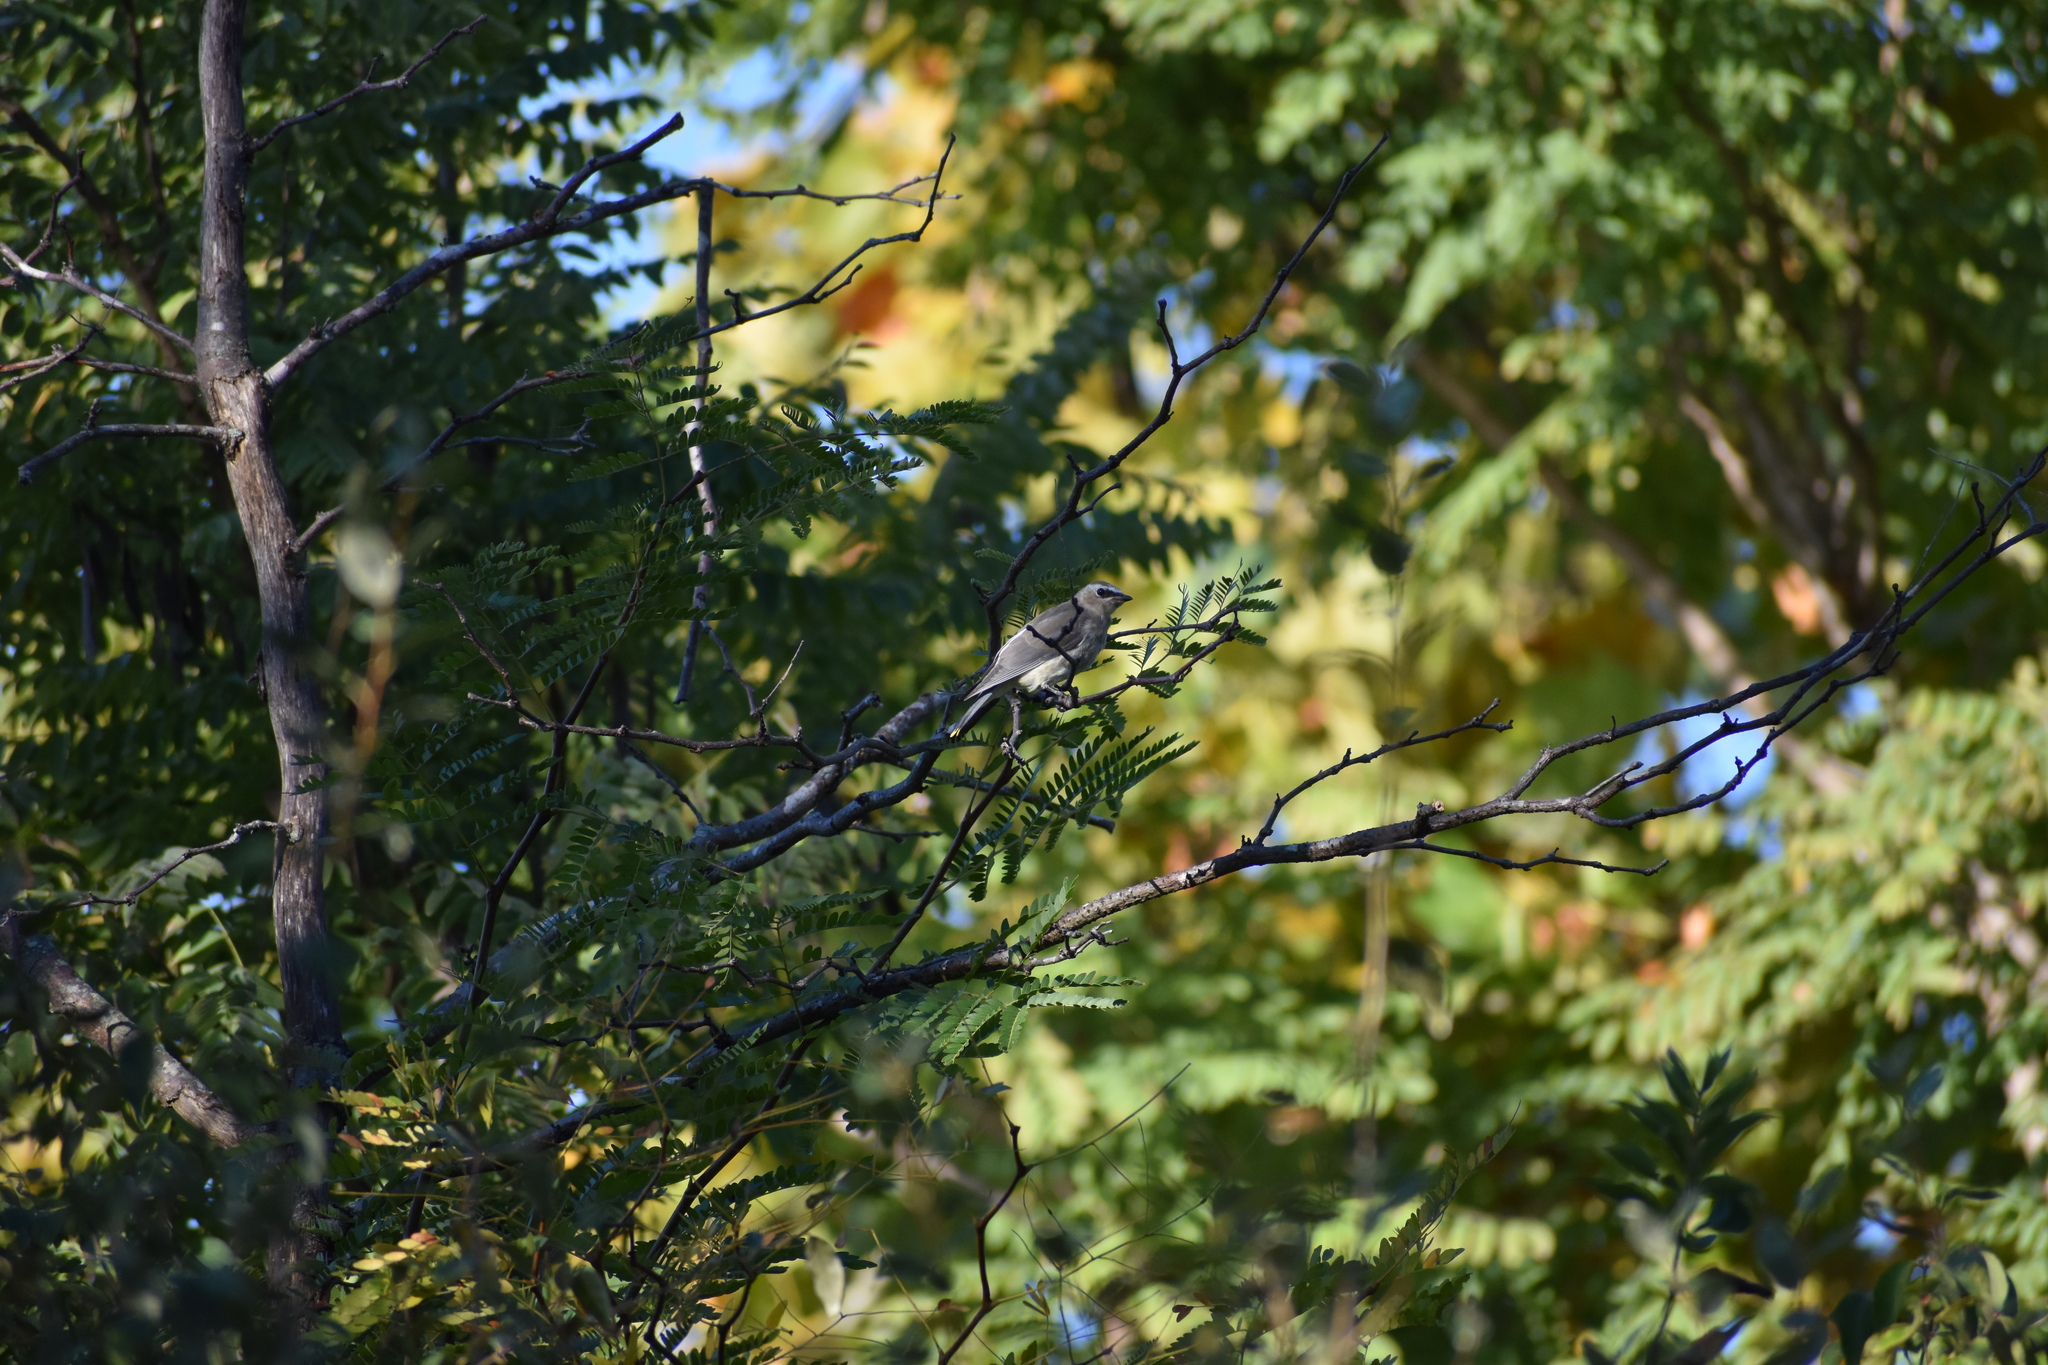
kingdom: Animalia
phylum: Chordata
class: Aves
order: Passeriformes
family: Bombycillidae
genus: Bombycilla
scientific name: Bombycilla cedrorum
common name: Cedar waxwing
